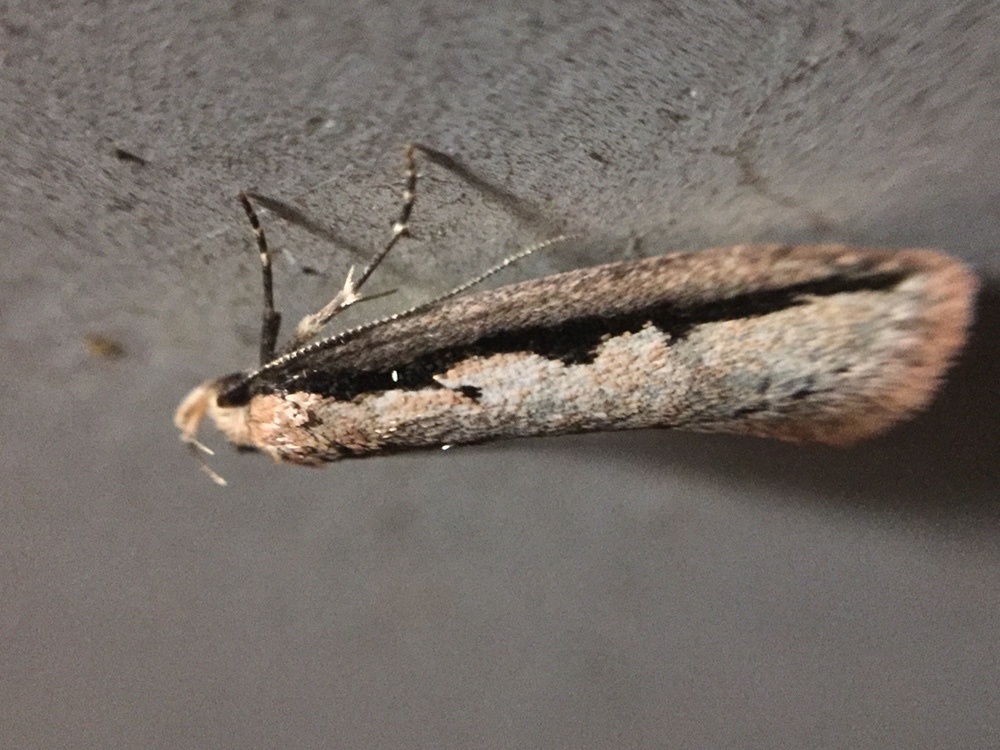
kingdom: Animalia
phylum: Arthropoda
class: Insecta
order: Lepidoptera
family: Oecophoridae
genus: Leptocroca
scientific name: Leptocroca sanguinolenta
